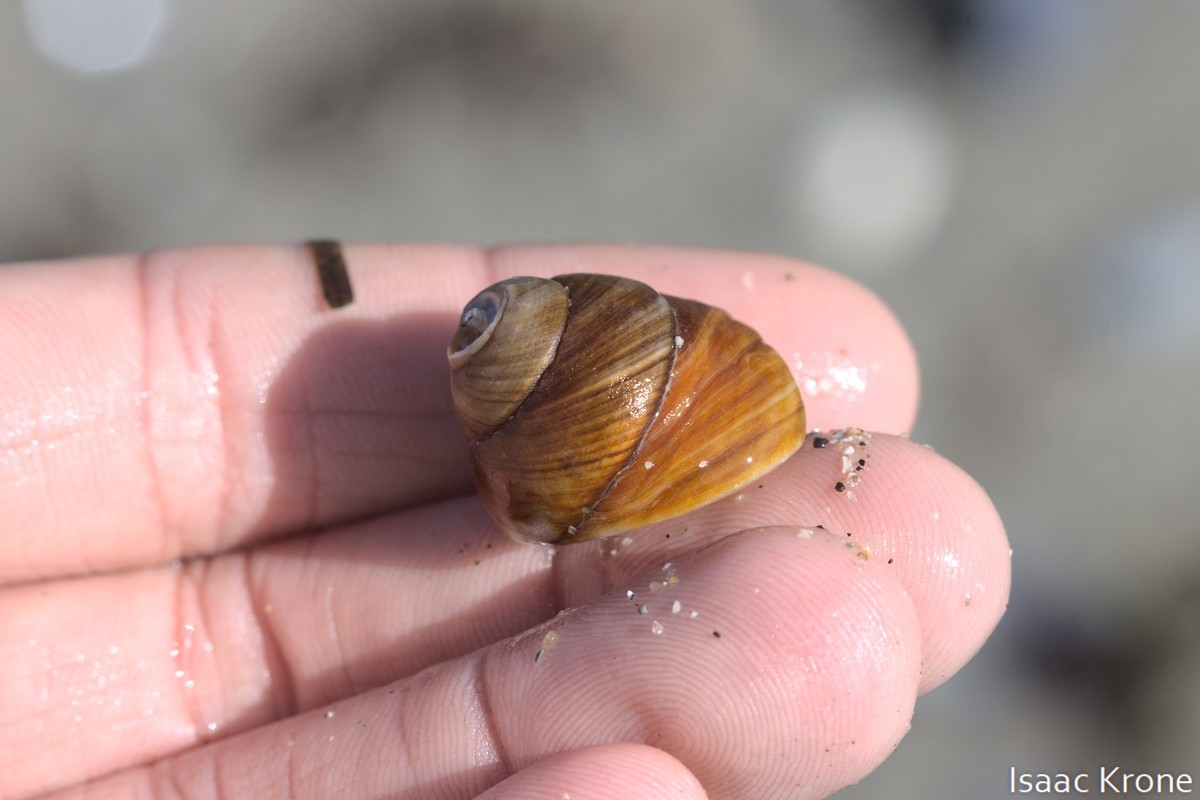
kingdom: Animalia
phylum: Mollusca
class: Gastropoda
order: Trochida
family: Tegulidae
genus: Tegula
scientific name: Tegula brunnea
